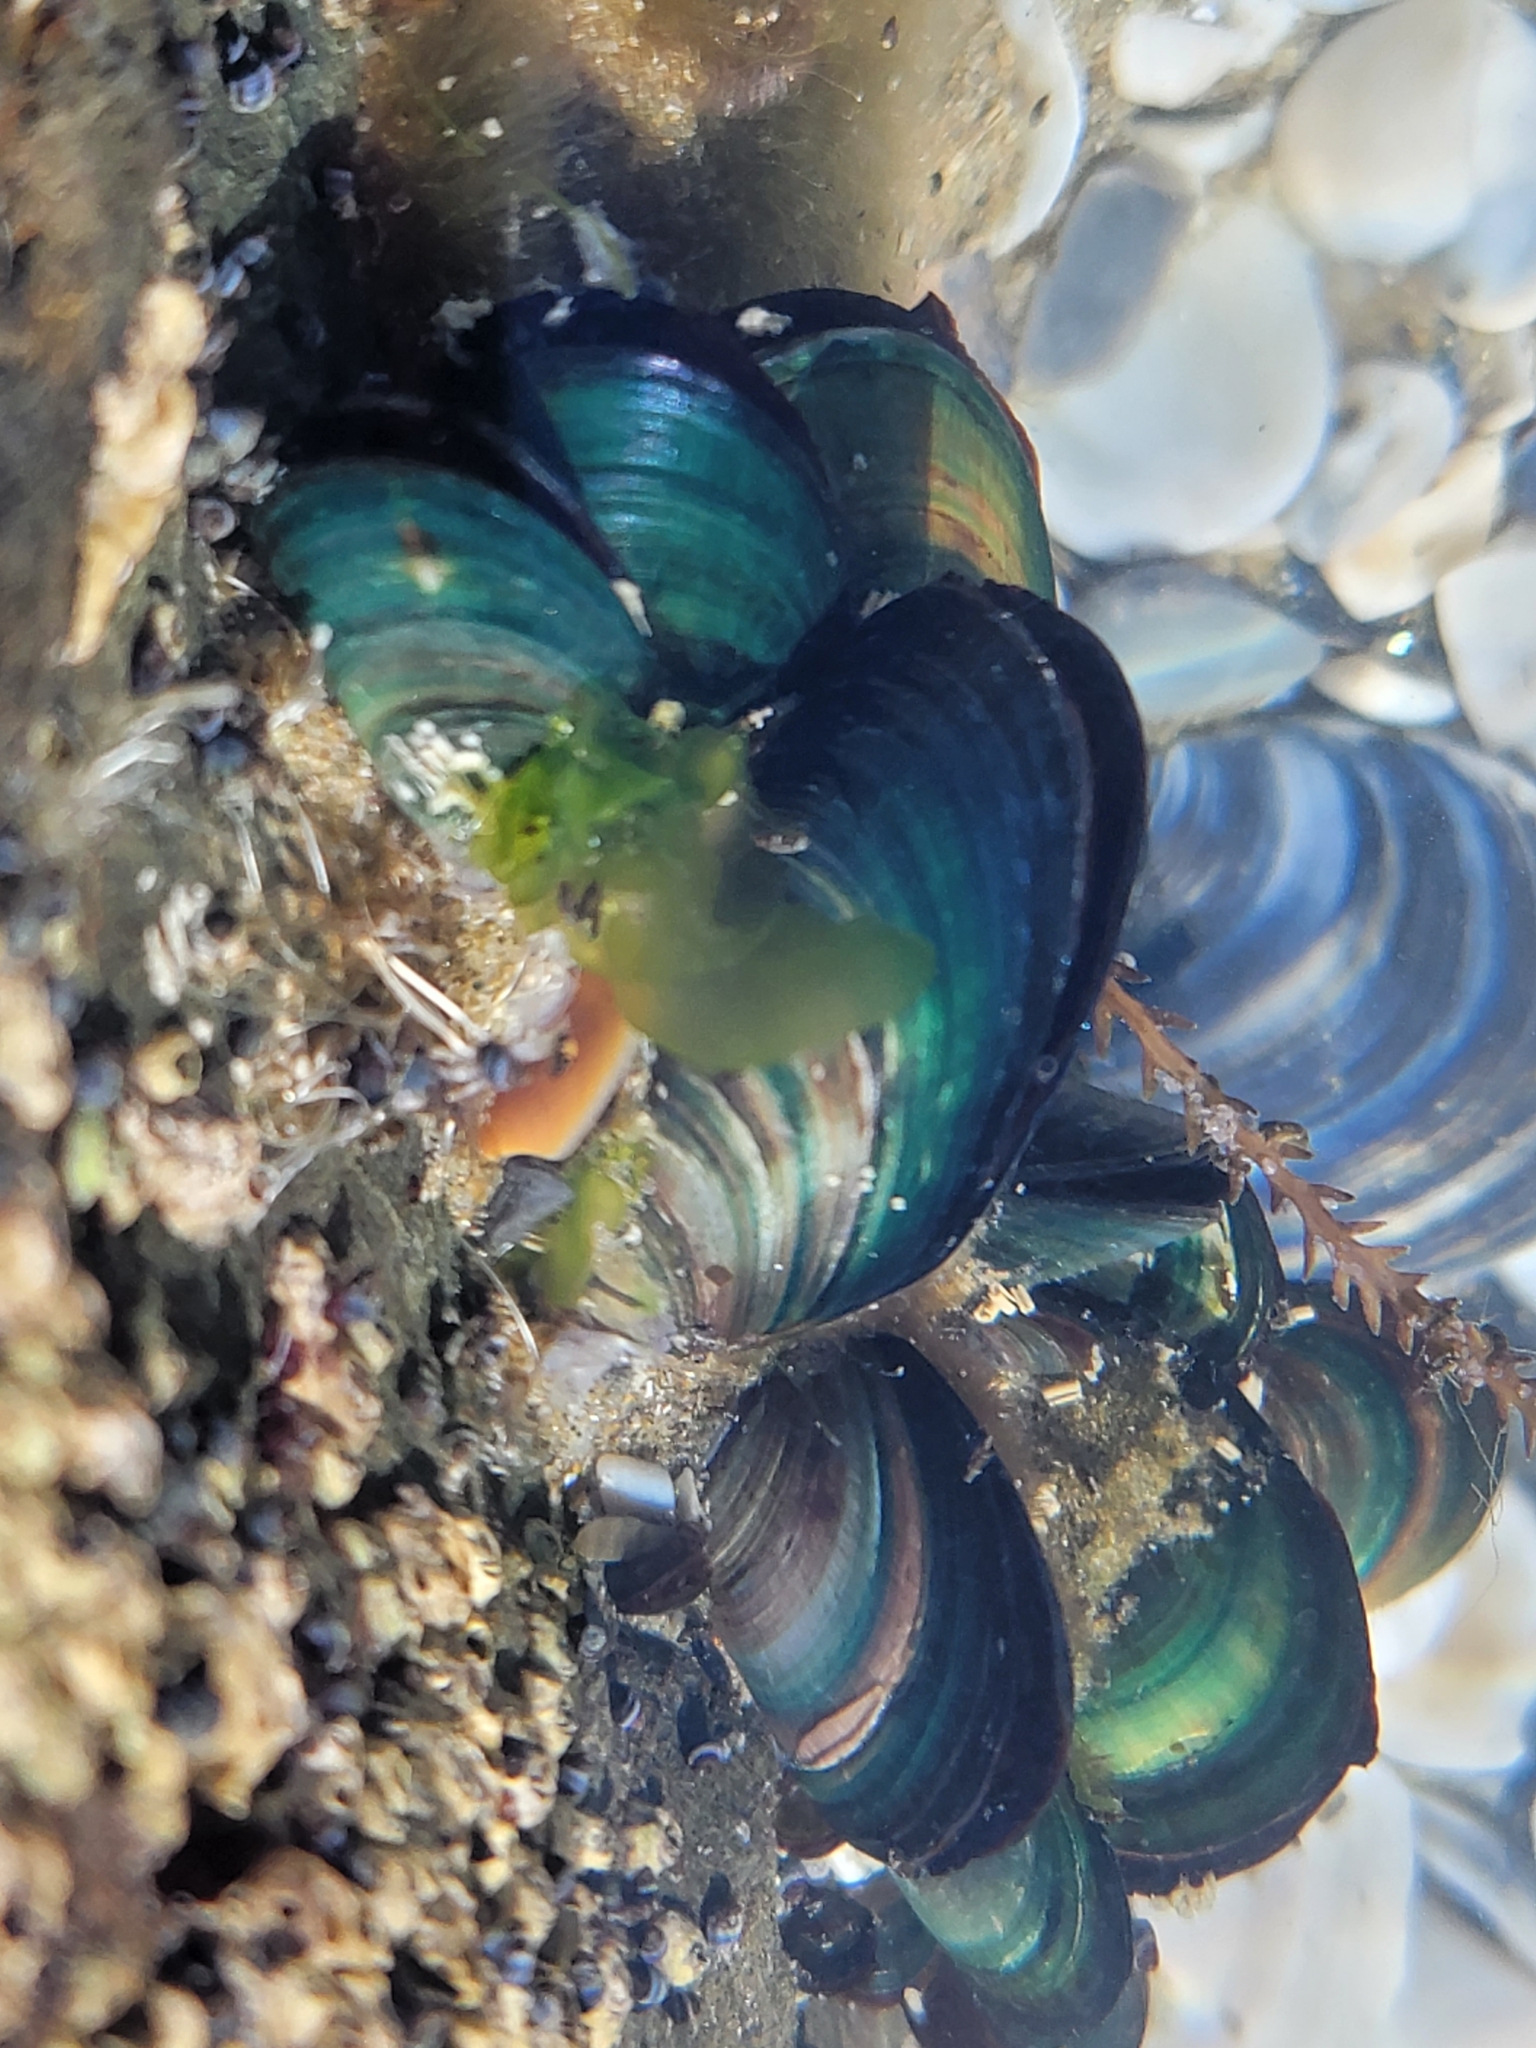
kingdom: Animalia
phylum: Mollusca
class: Bivalvia
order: Mytilida
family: Mytilidae
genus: Perna
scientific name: Perna canaliculus
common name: New zealand greenshelltm
